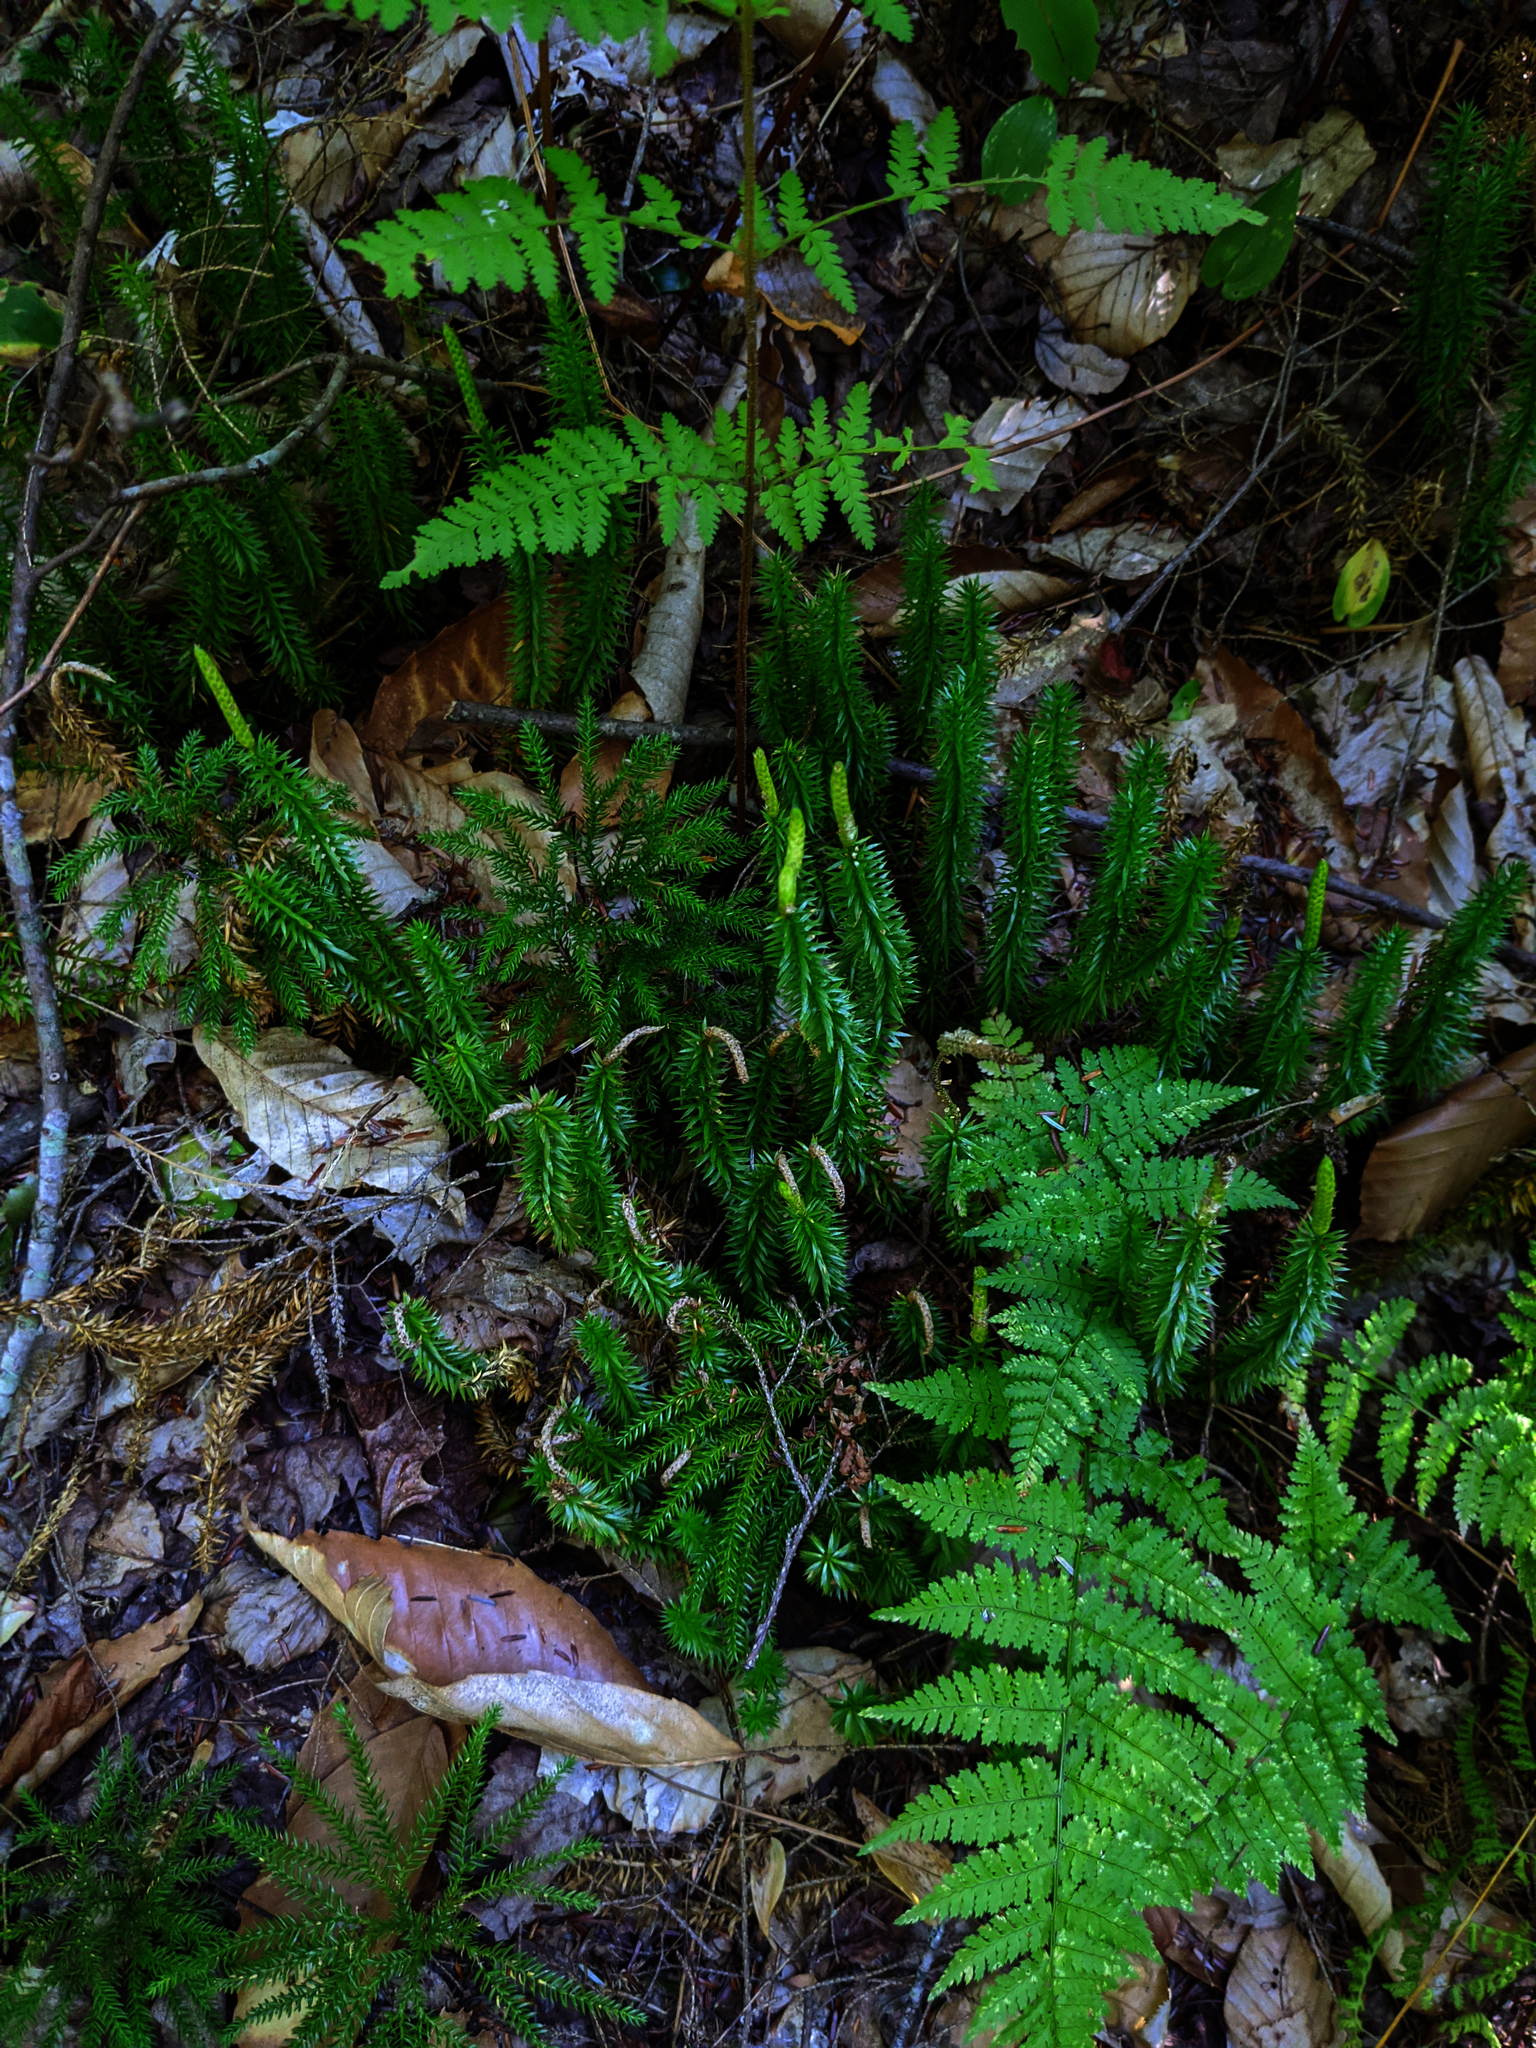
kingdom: Plantae
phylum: Tracheophyta
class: Lycopodiopsida
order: Lycopodiales
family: Lycopodiaceae
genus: Spinulum
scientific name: Spinulum annotinum
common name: Interrupted club-moss
